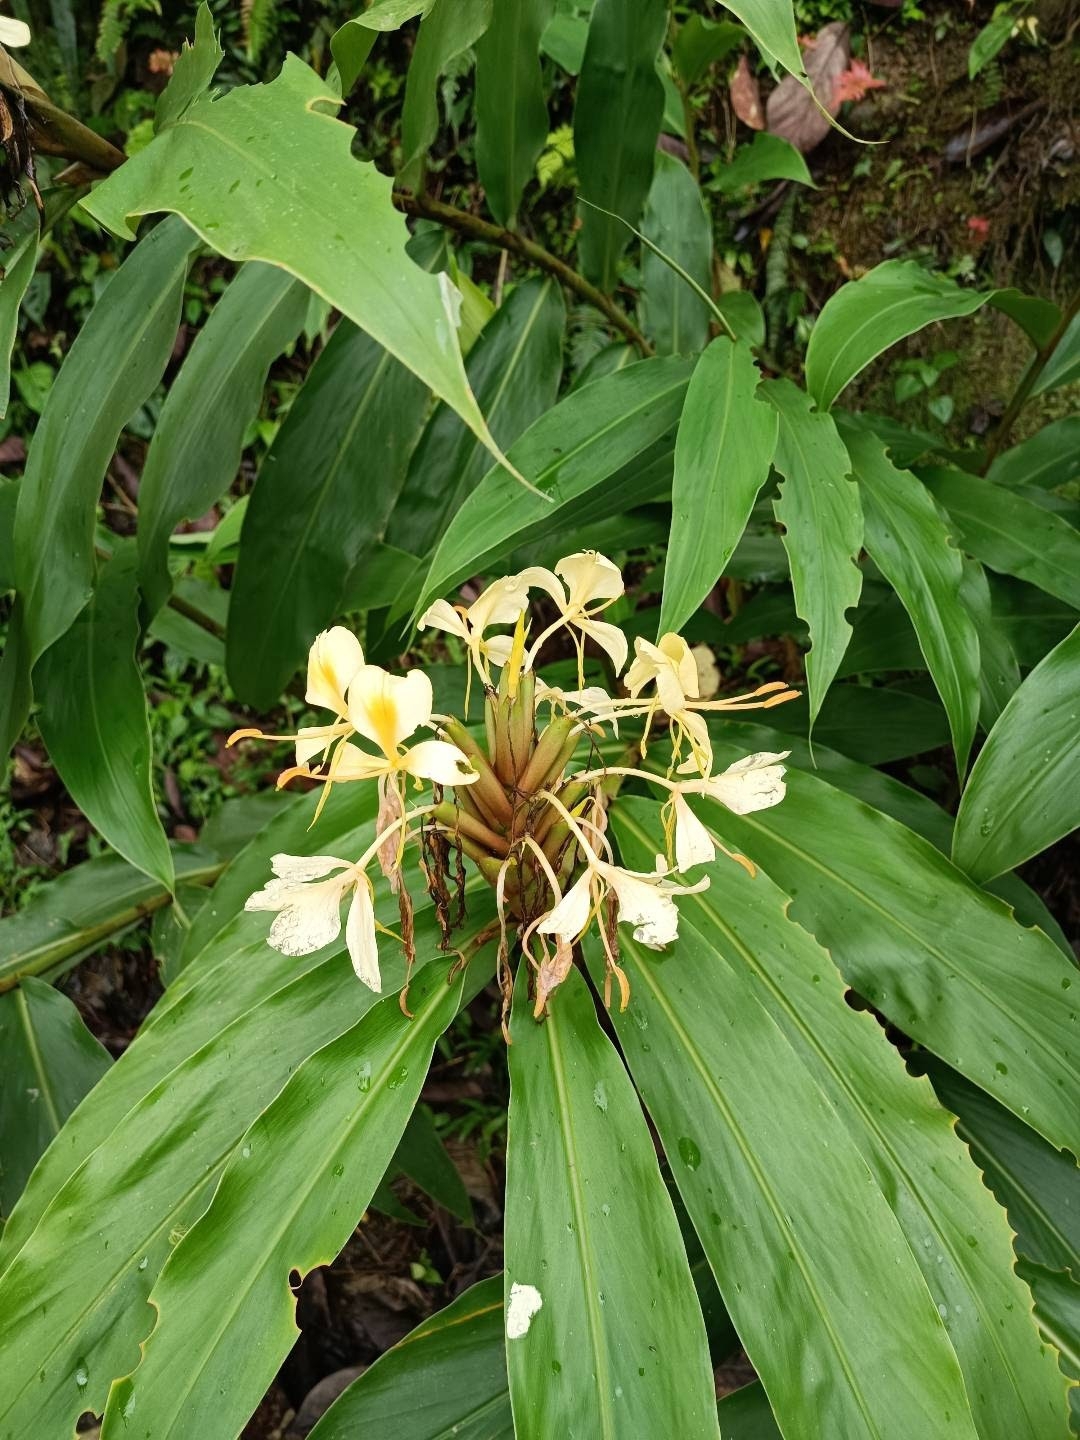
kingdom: Plantae
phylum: Tracheophyta
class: Liliopsida
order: Zingiberales
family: Zingiberaceae
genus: Hedychium
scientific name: Hedychium flavescens
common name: Yellow ginger
